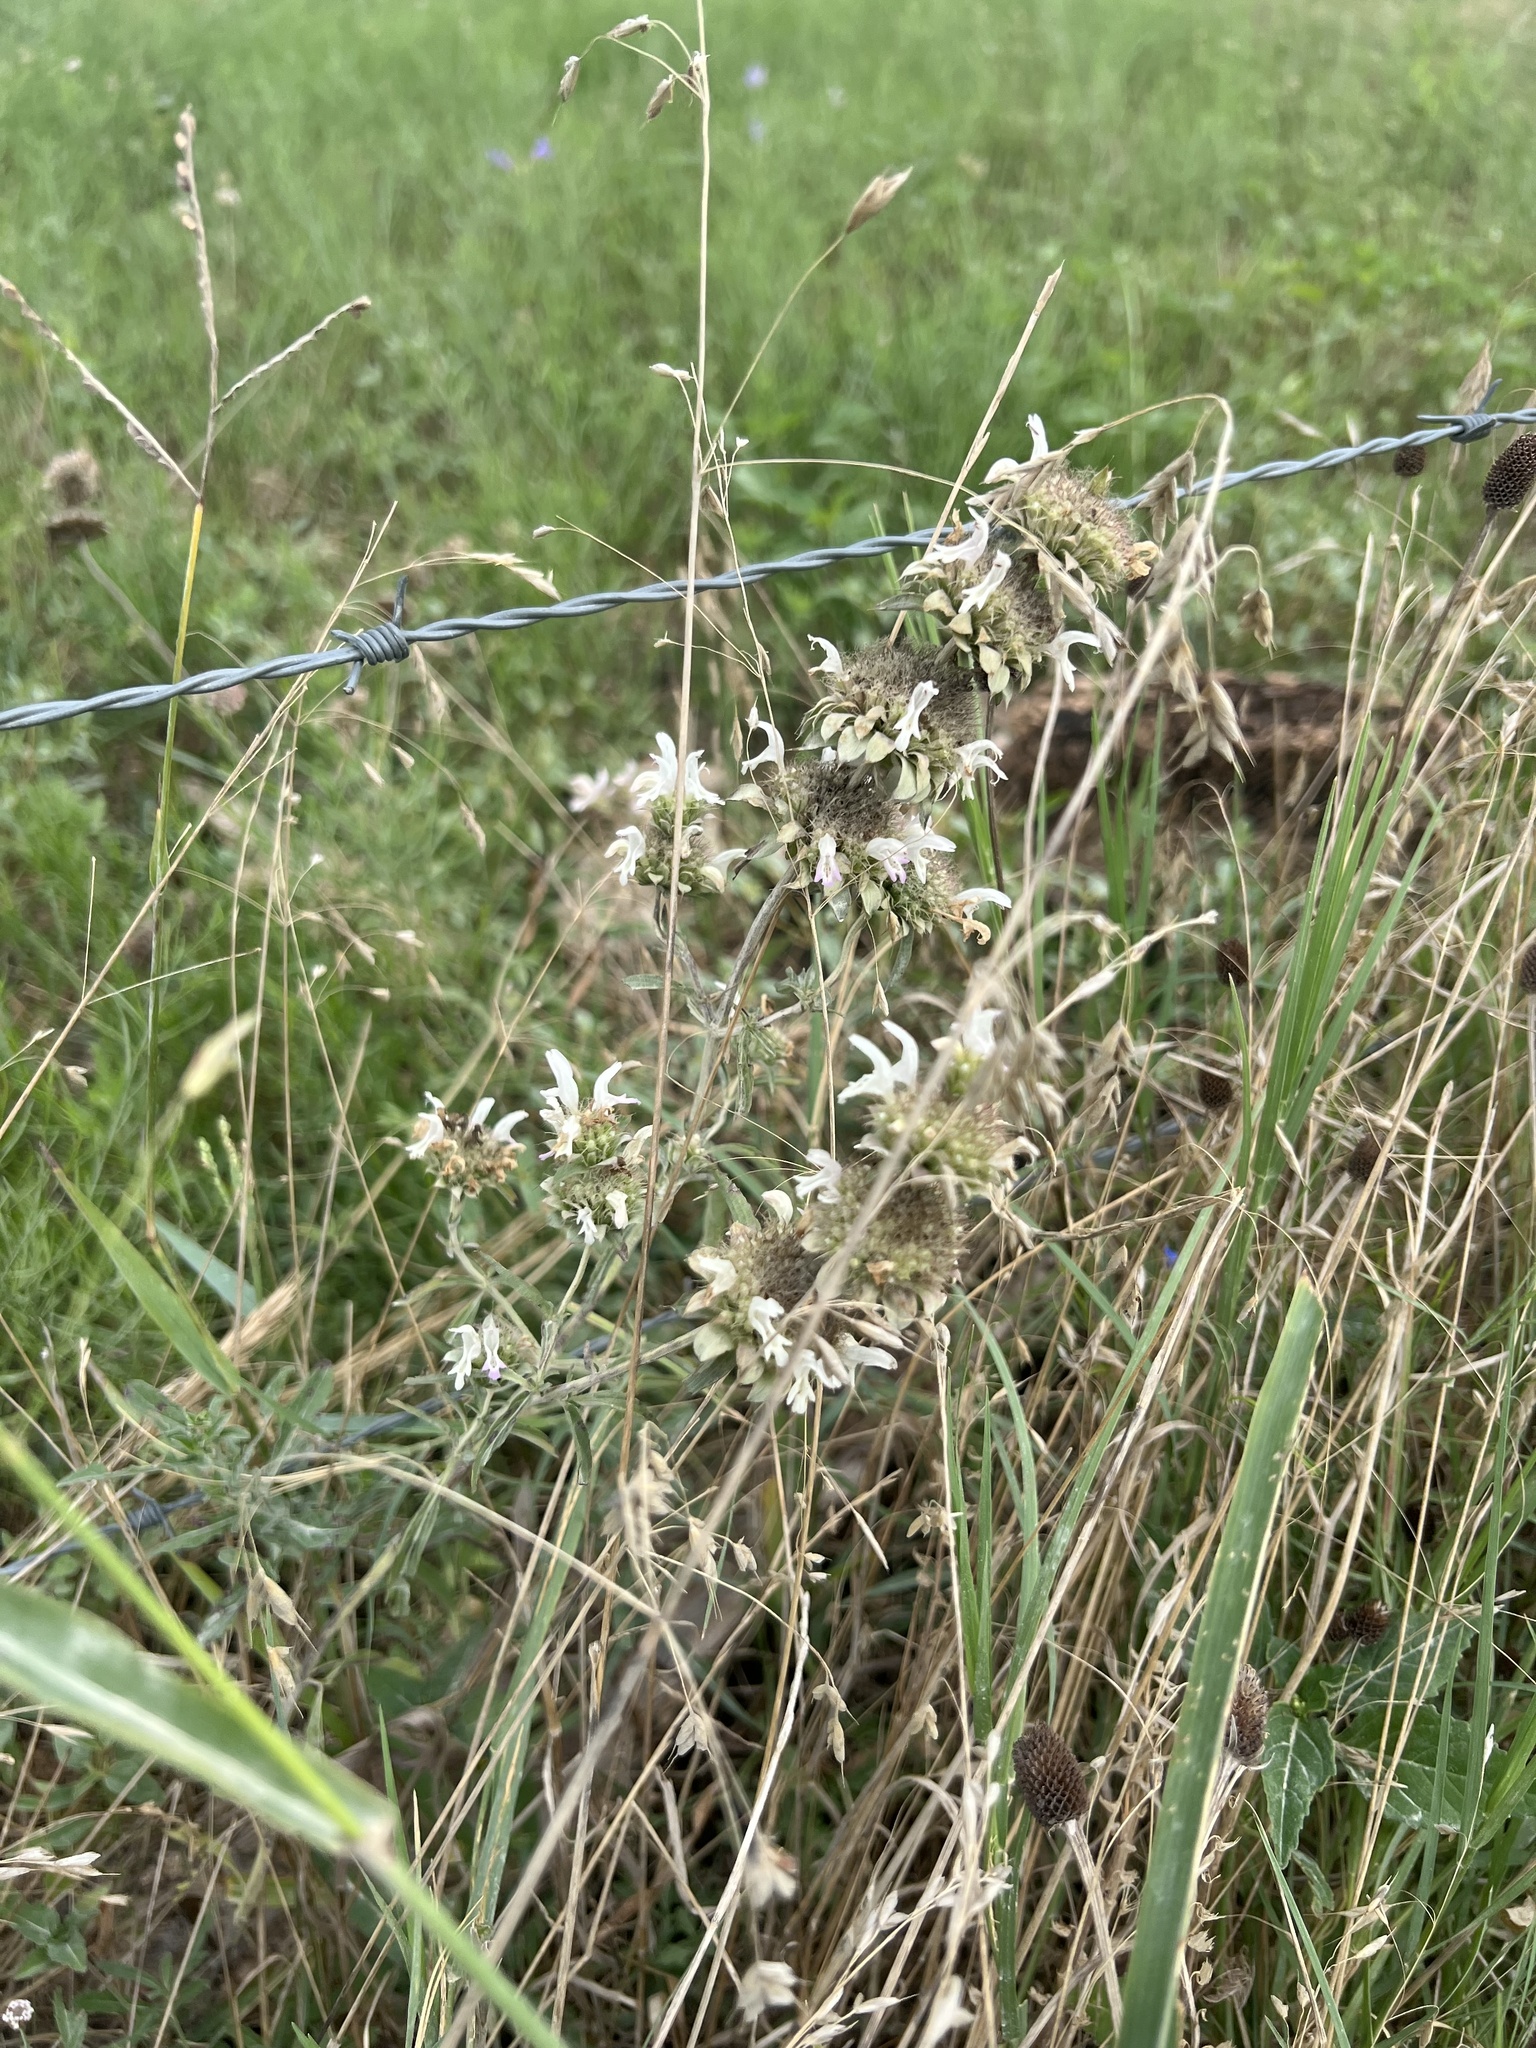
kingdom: Plantae
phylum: Tracheophyta
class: Magnoliopsida
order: Lamiales
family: Lamiaceae
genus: Monarda
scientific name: Monarda citriodora
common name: Lemon beebalm
